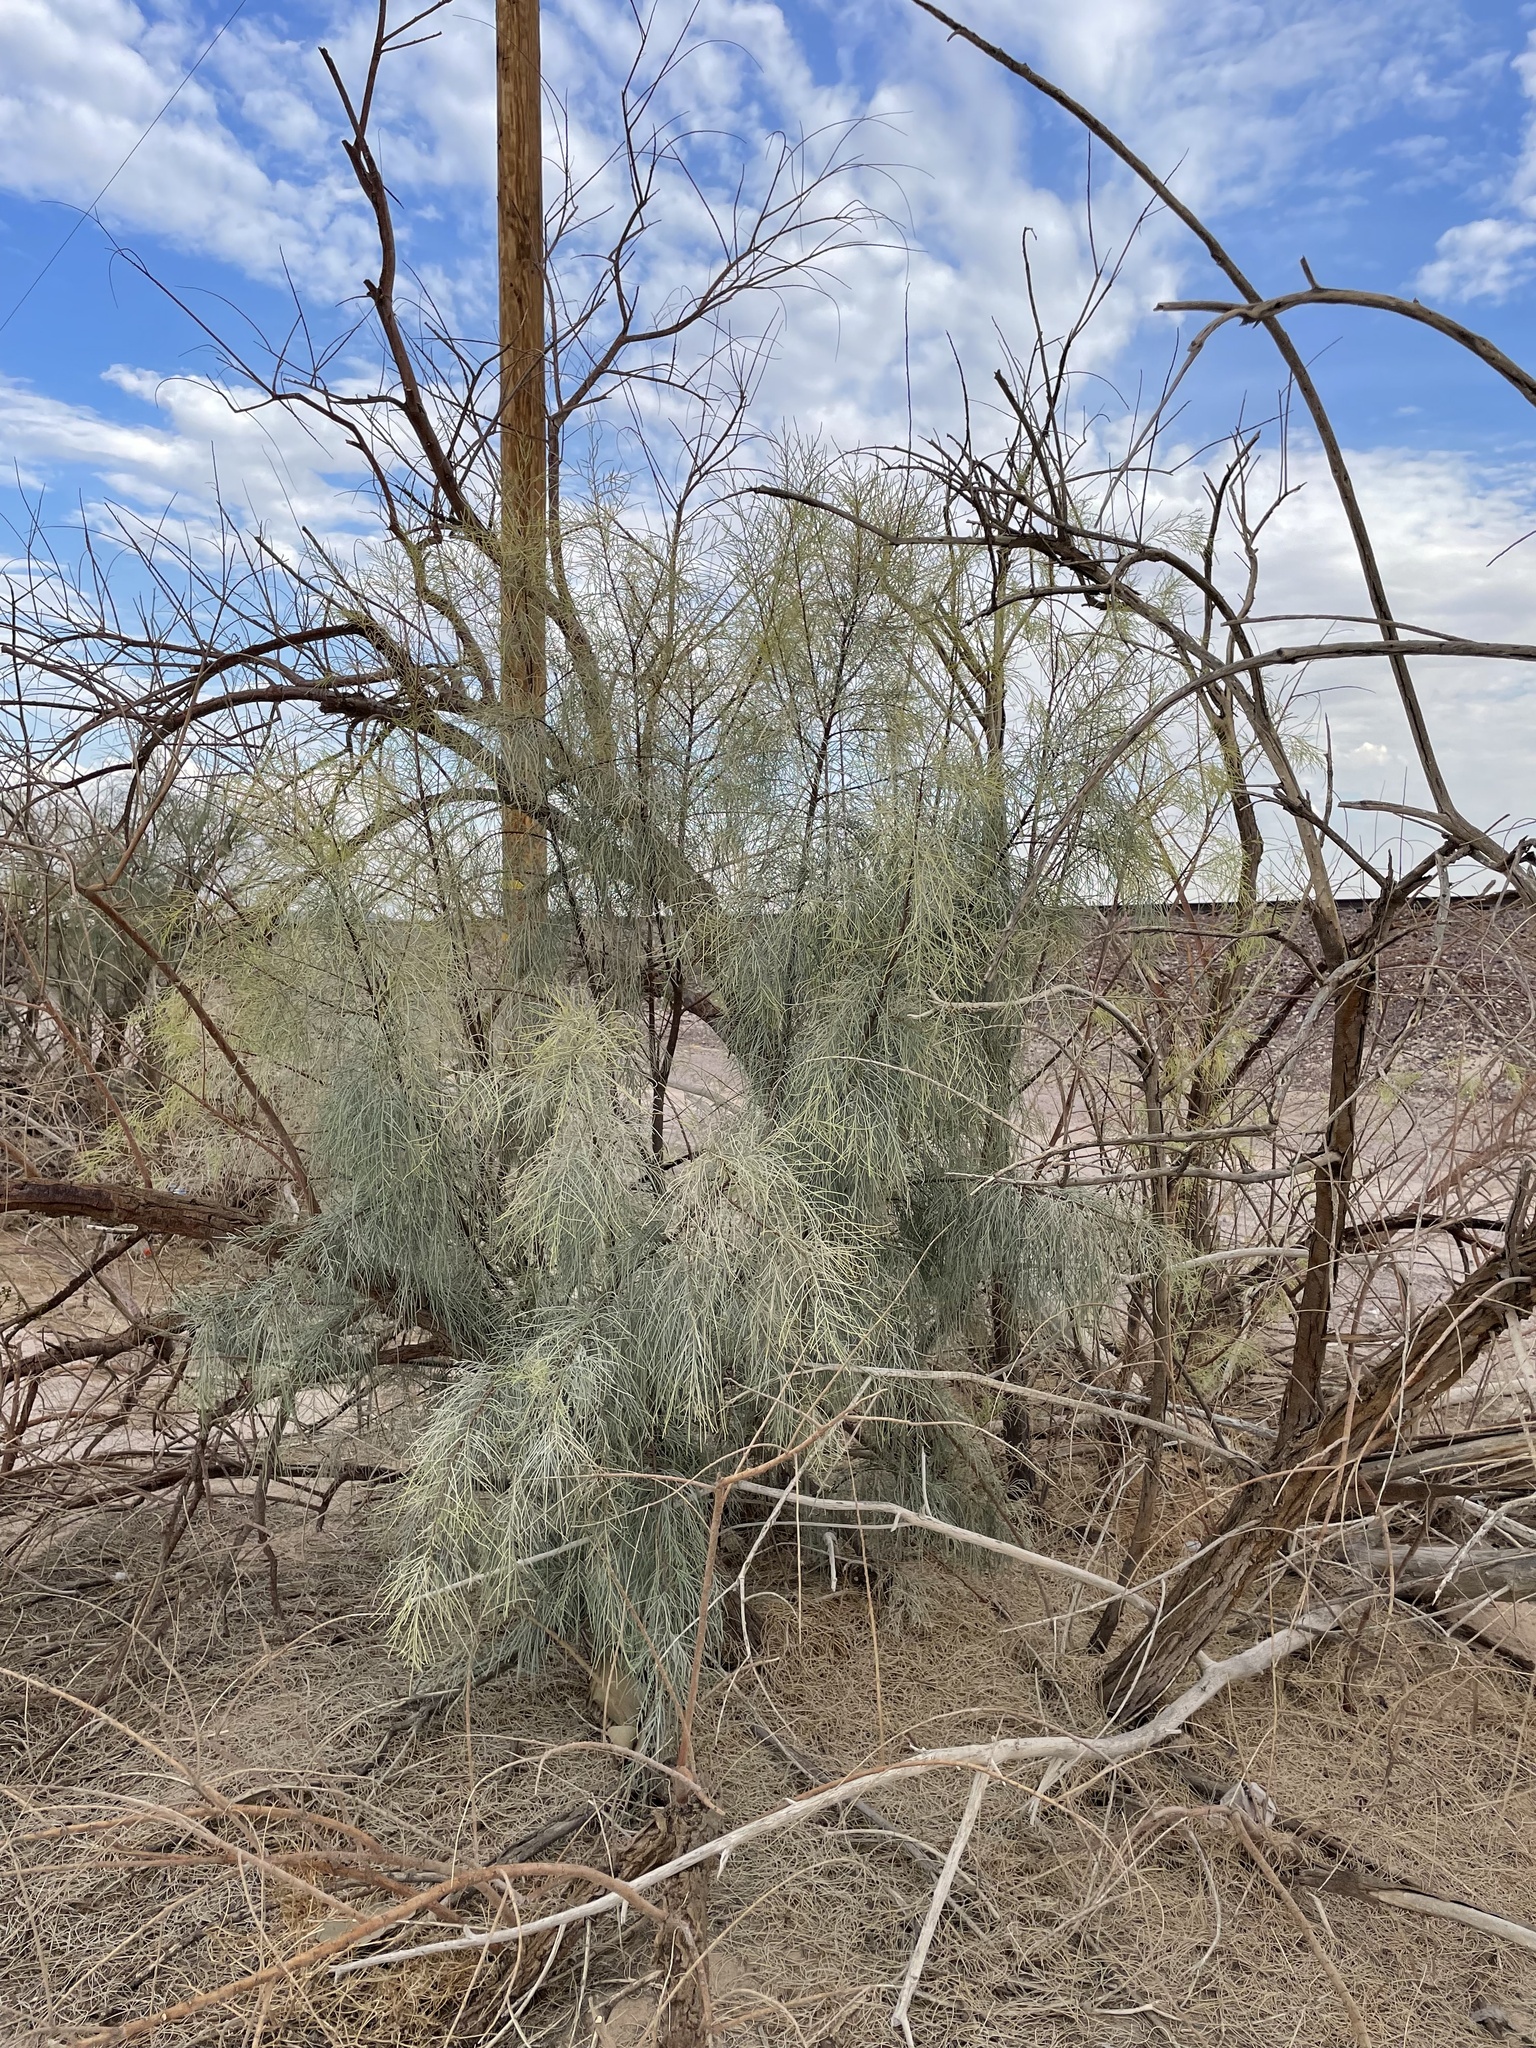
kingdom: Plantae
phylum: Tracheophyta
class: Magnoliopsida
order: Caryophyllales
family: Tamaricaceae
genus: Tamarix
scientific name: Tamarix aphylla
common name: Athel tamarisk
